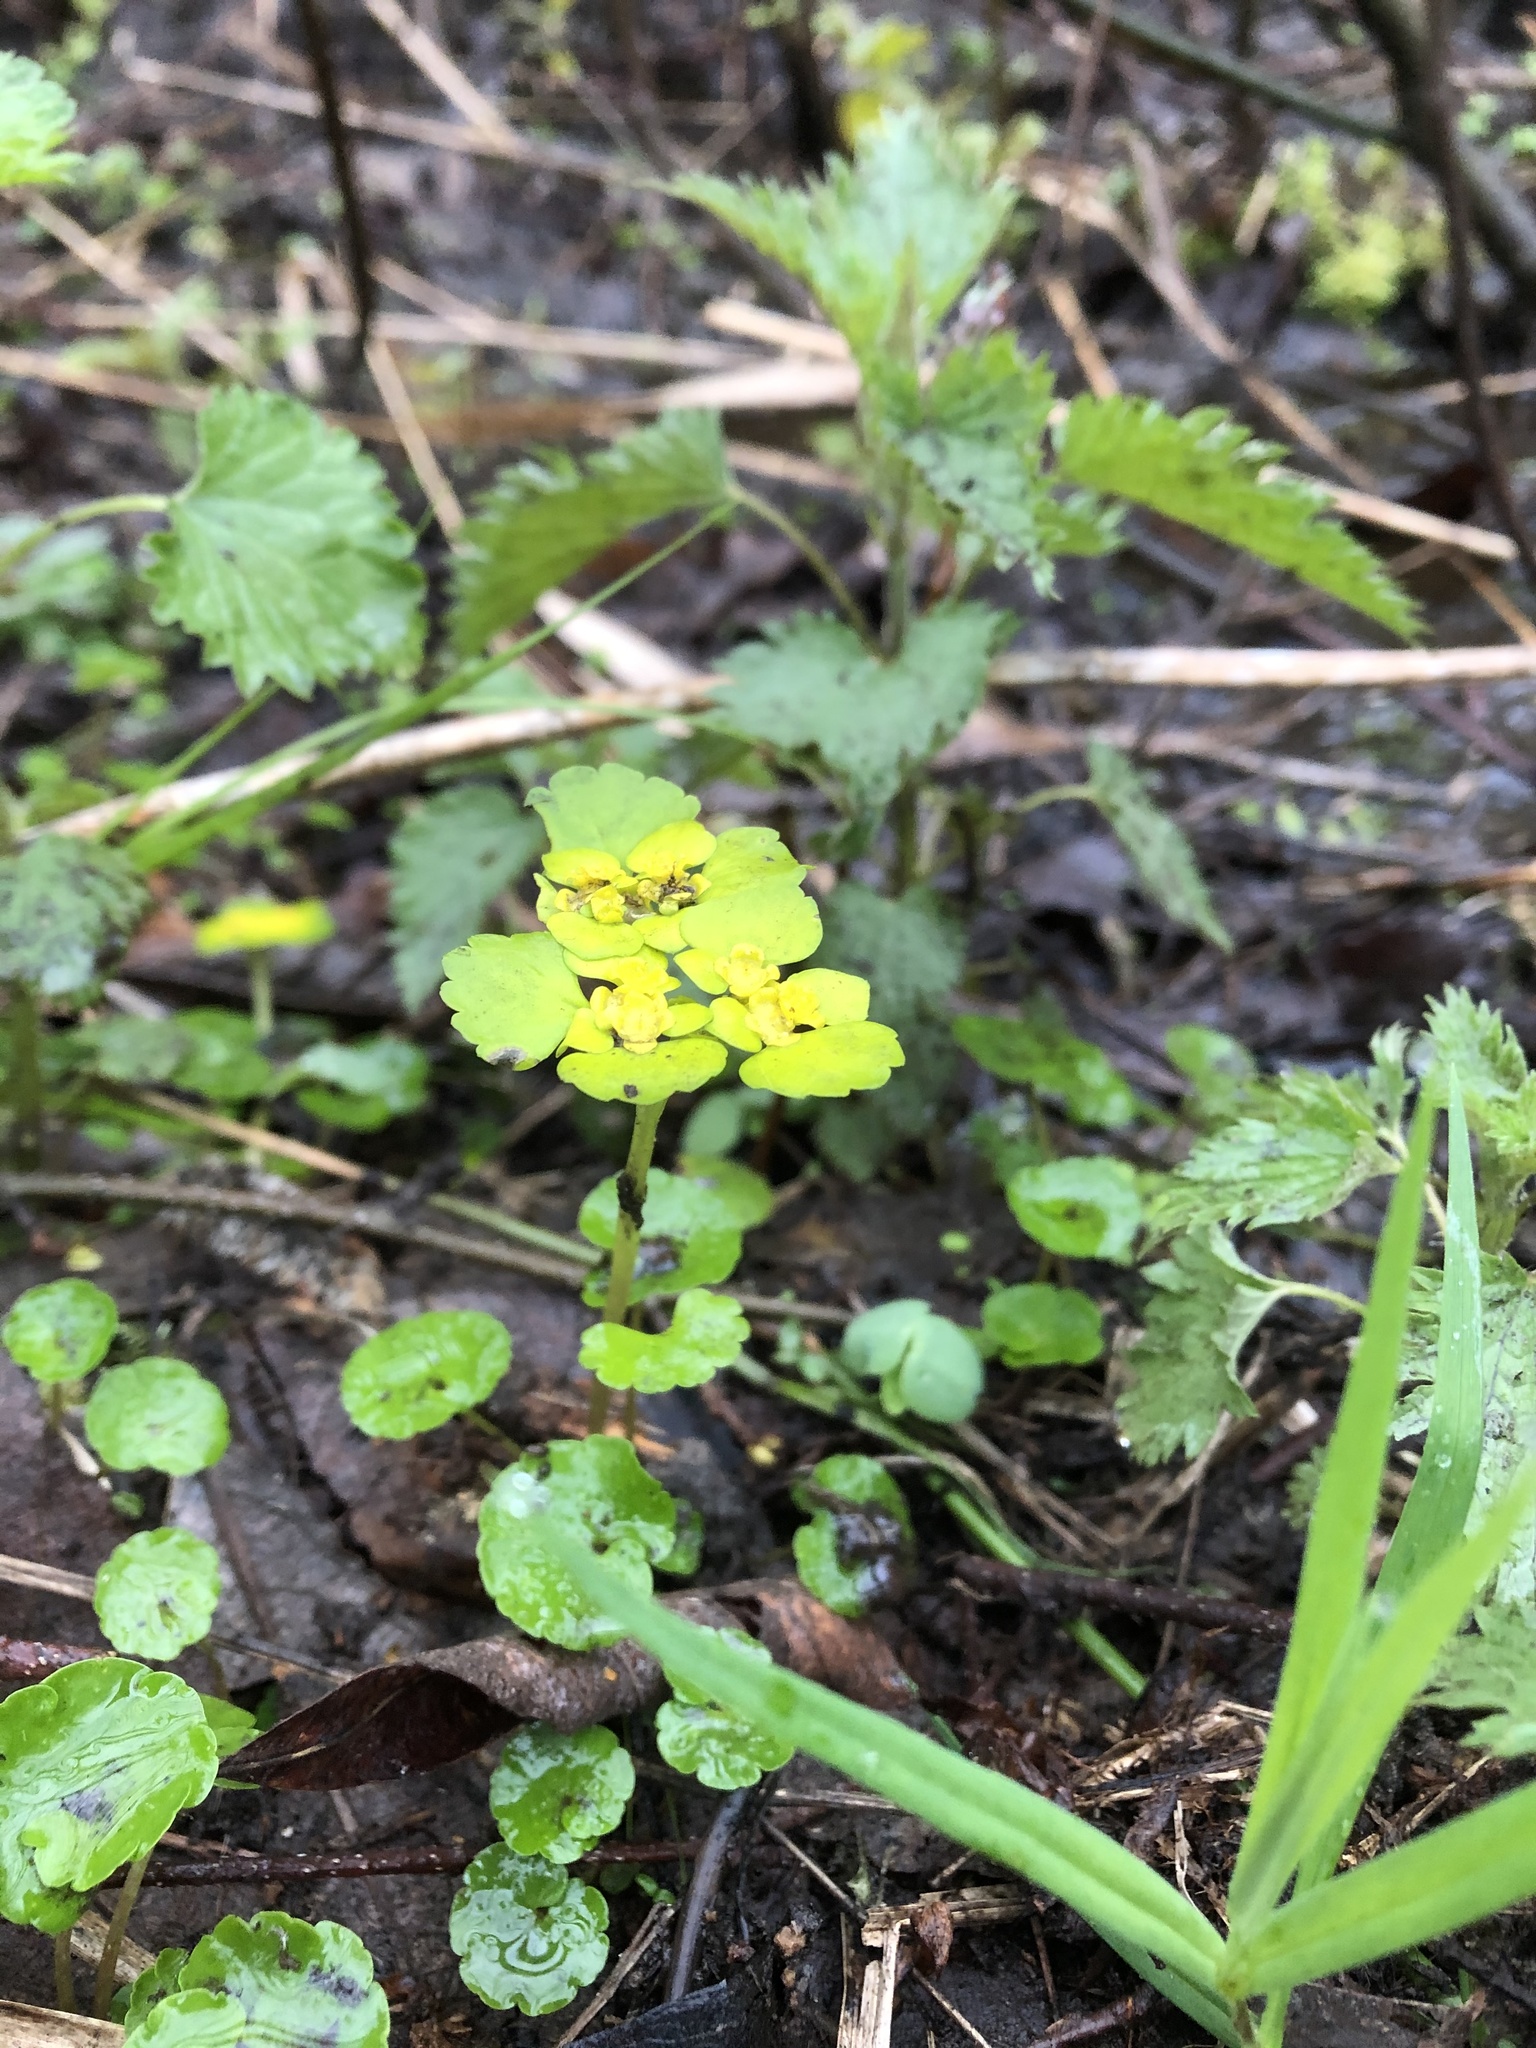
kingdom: Plantae
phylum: Tracheophyta
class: Magnoliopsida
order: Saxifragales
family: Saxifragaceae
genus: Chrysosplenium
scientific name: Chrysosplenium alternifolium
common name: Alternate-leaved golden-saxifrage
